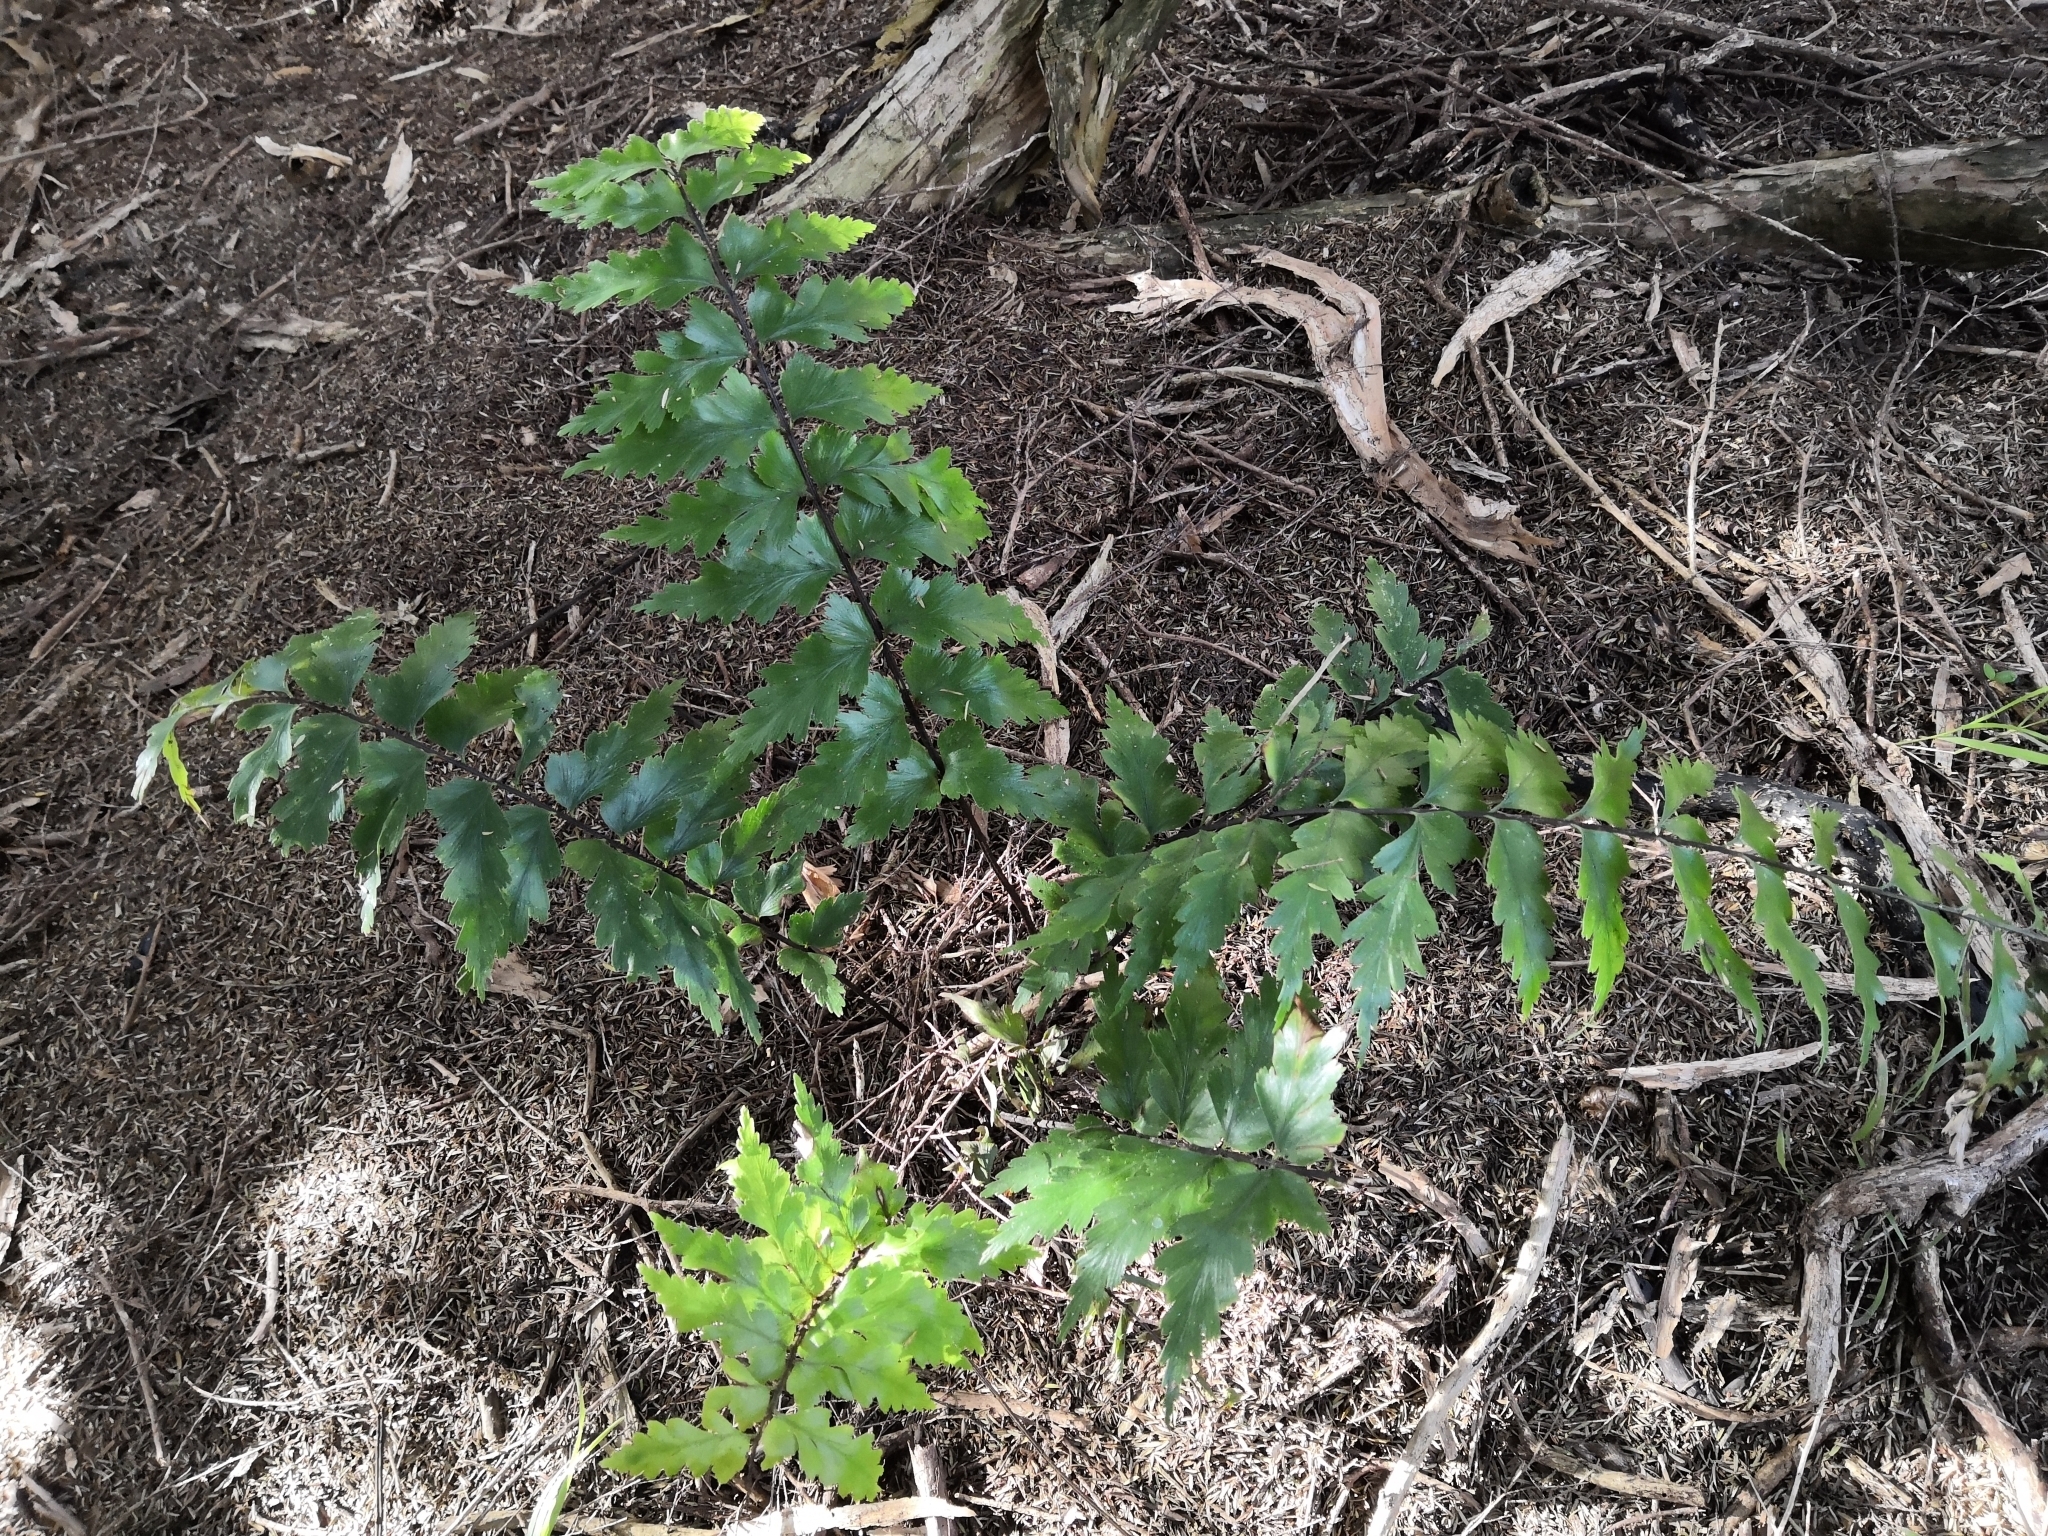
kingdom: Plantae
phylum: Tracheophyta
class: Polypodiopsida
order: Polypodiales
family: Aspleniaceae
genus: Asplenium
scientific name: Asplenium polyodon
